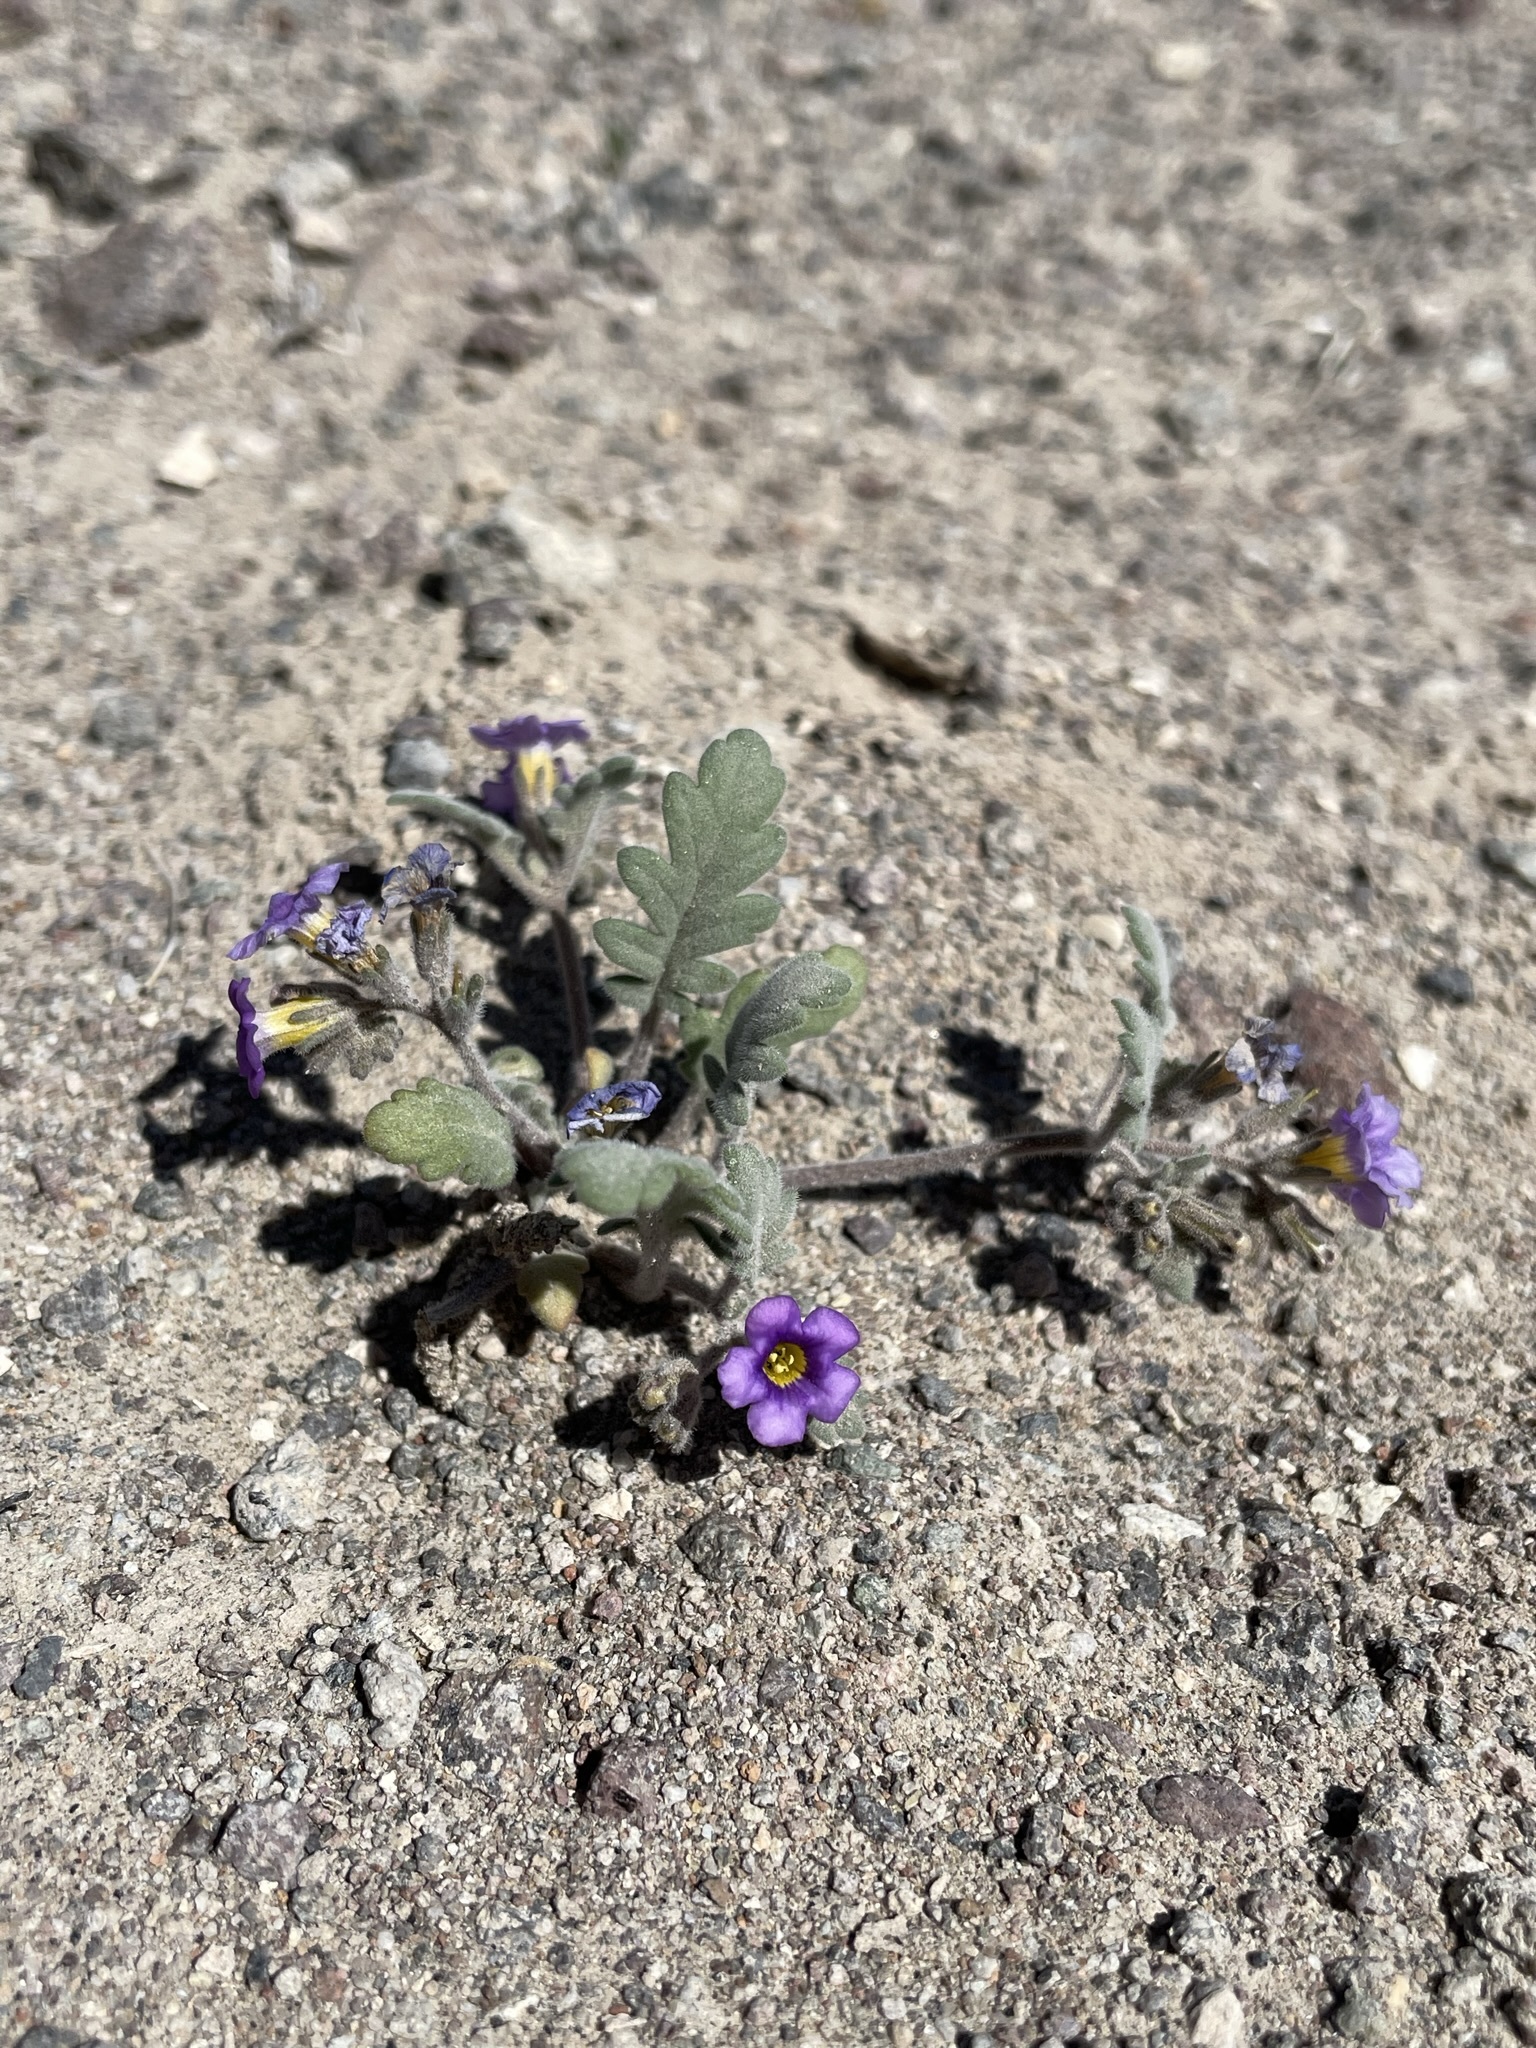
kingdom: Plantae
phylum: Tracheophyta
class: Magnoliopsida
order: Boraginales
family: Hydrophyllaceae
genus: Phacelia
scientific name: Phacelia gymnoclada
